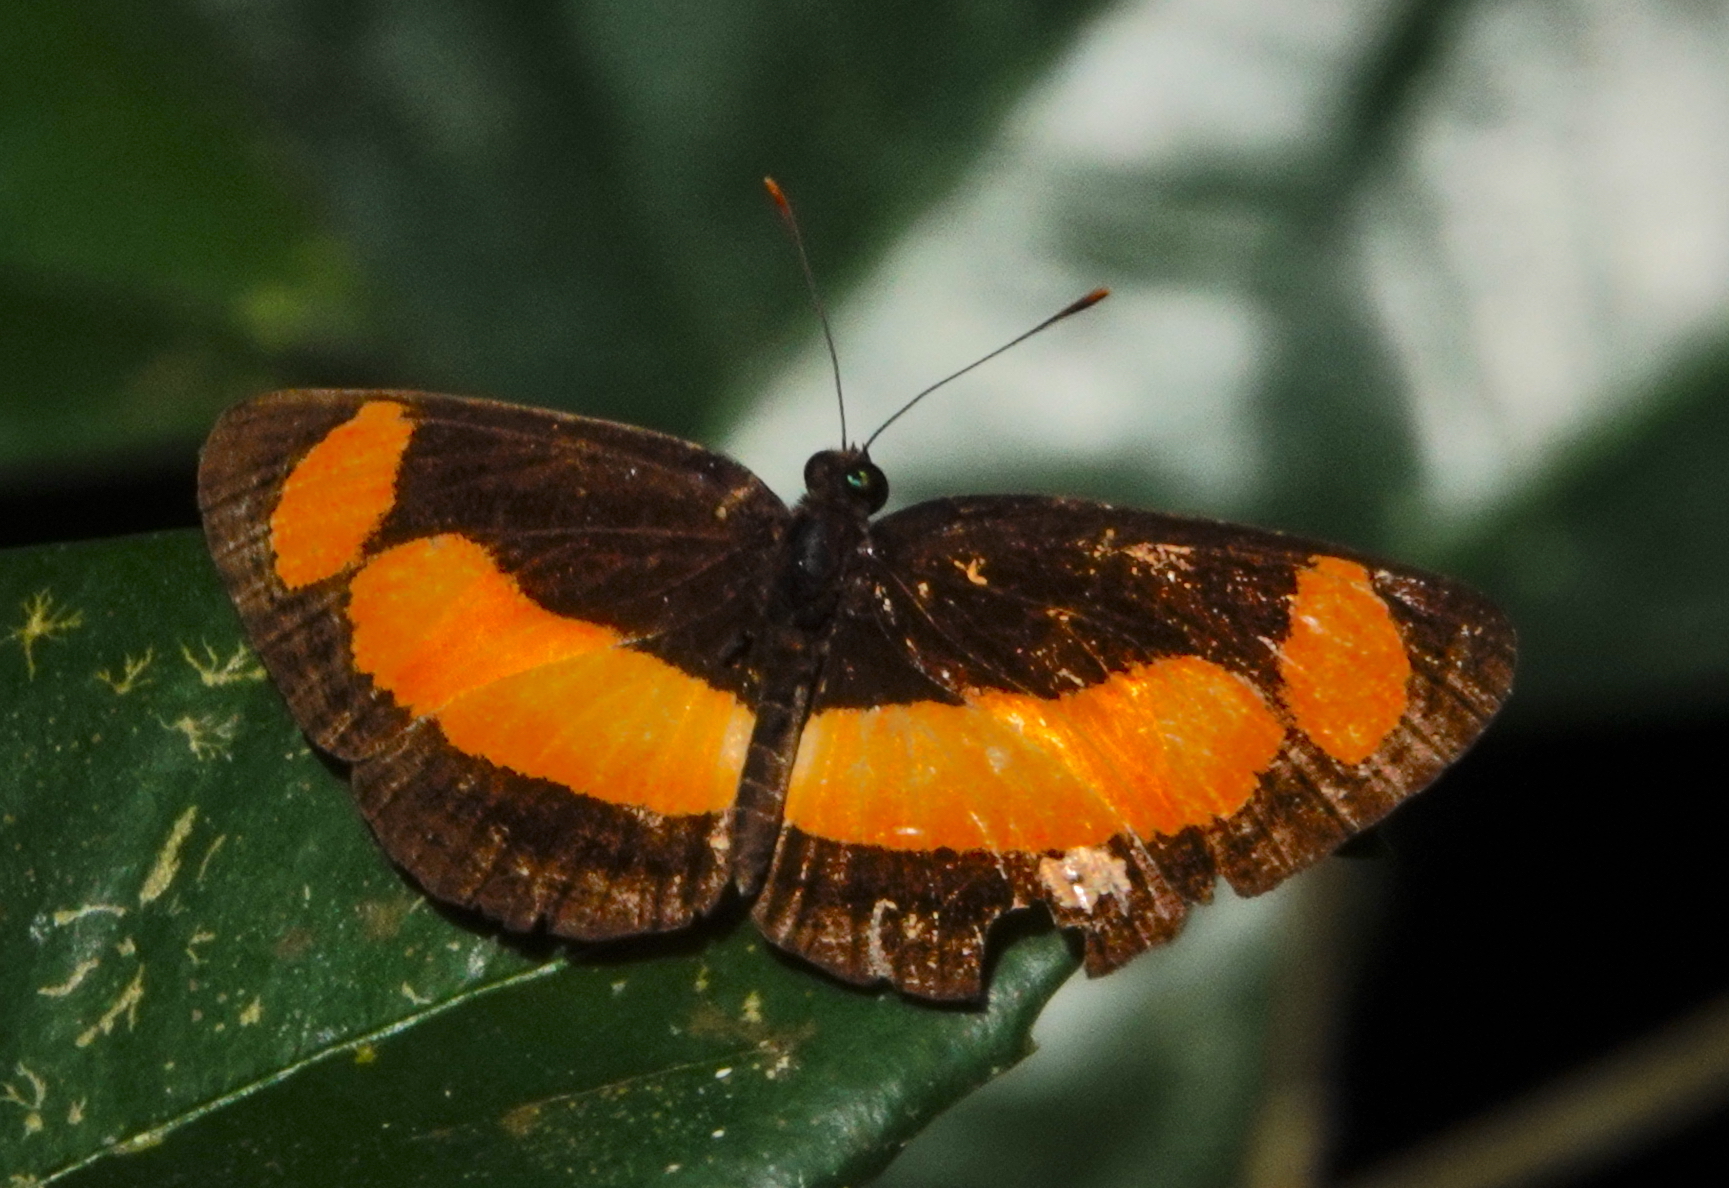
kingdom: Animalia
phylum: Arthropoda
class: Insecta
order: Lepidoptera
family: Nymphalidae
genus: Pantoporia
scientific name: Pantoporia consimilis
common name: Orange plane
